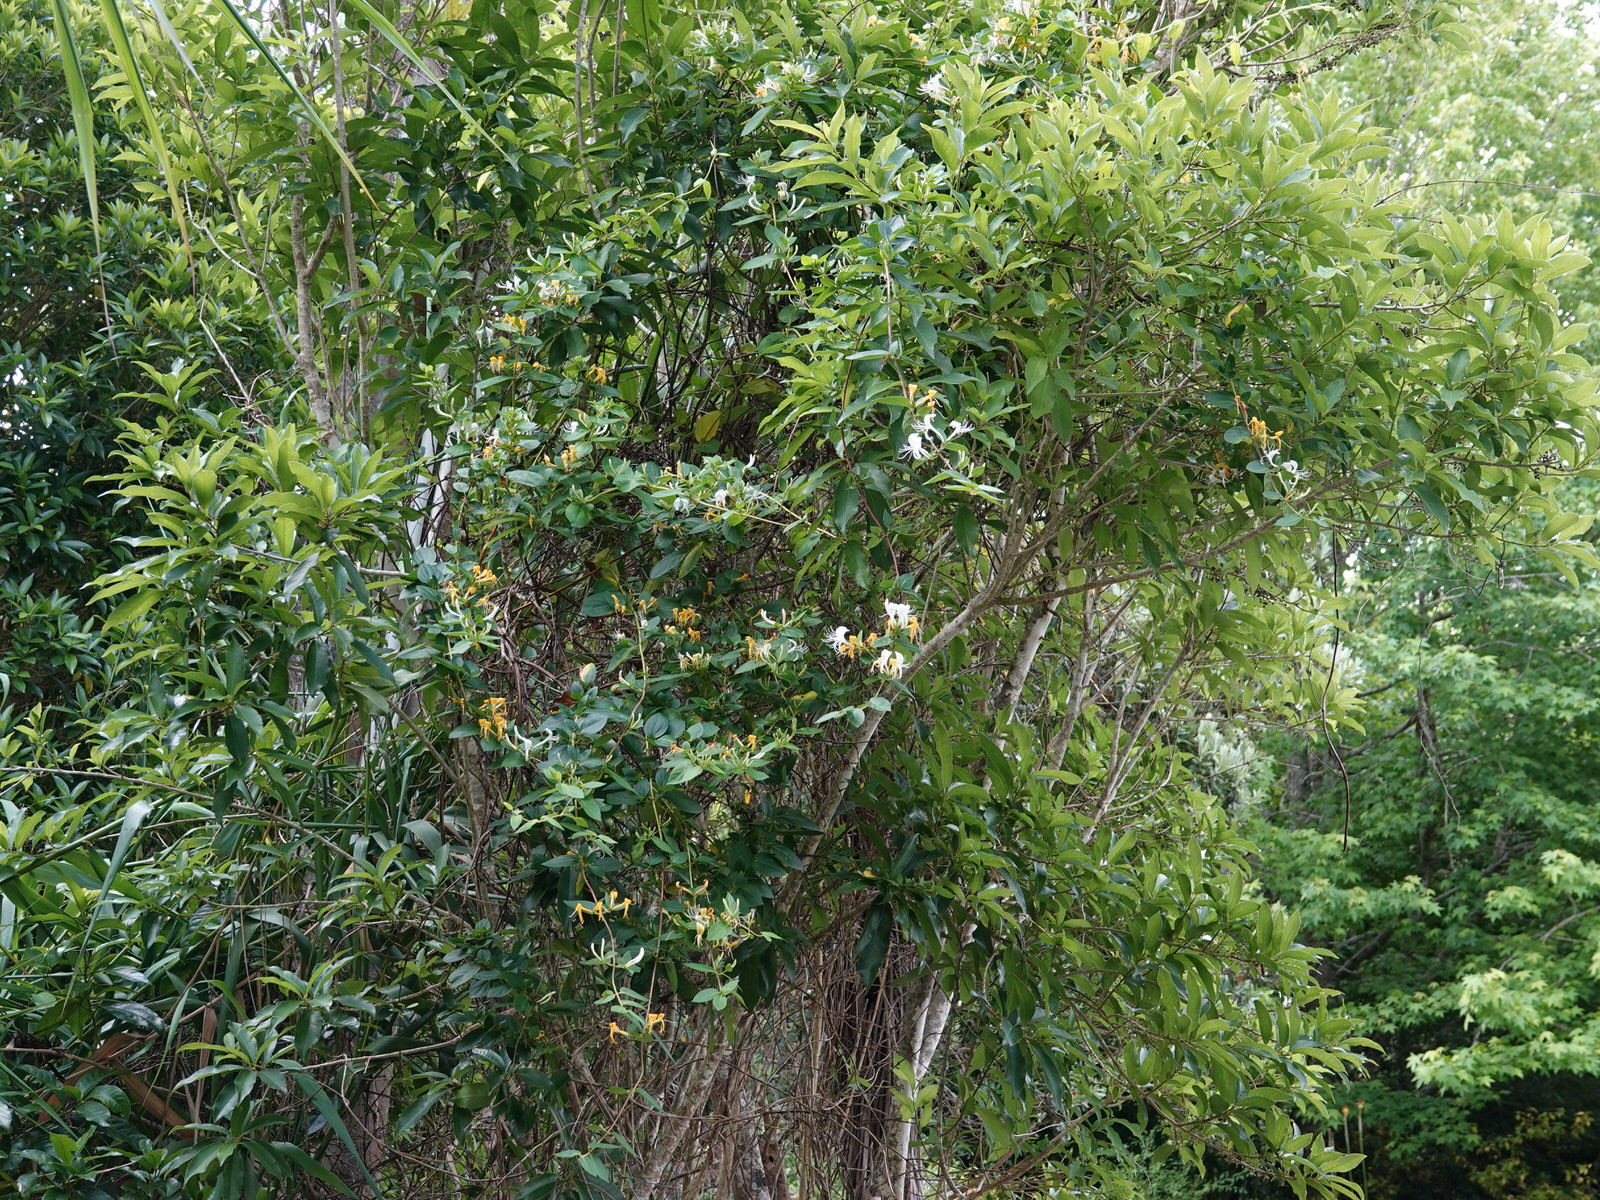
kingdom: Plantae
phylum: Tracheophyta
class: Magnoliopsida
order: Dipsacales
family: Caprifoliaceae
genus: Lonicera
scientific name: Lonicera japonica
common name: Japanese honeysuckle
